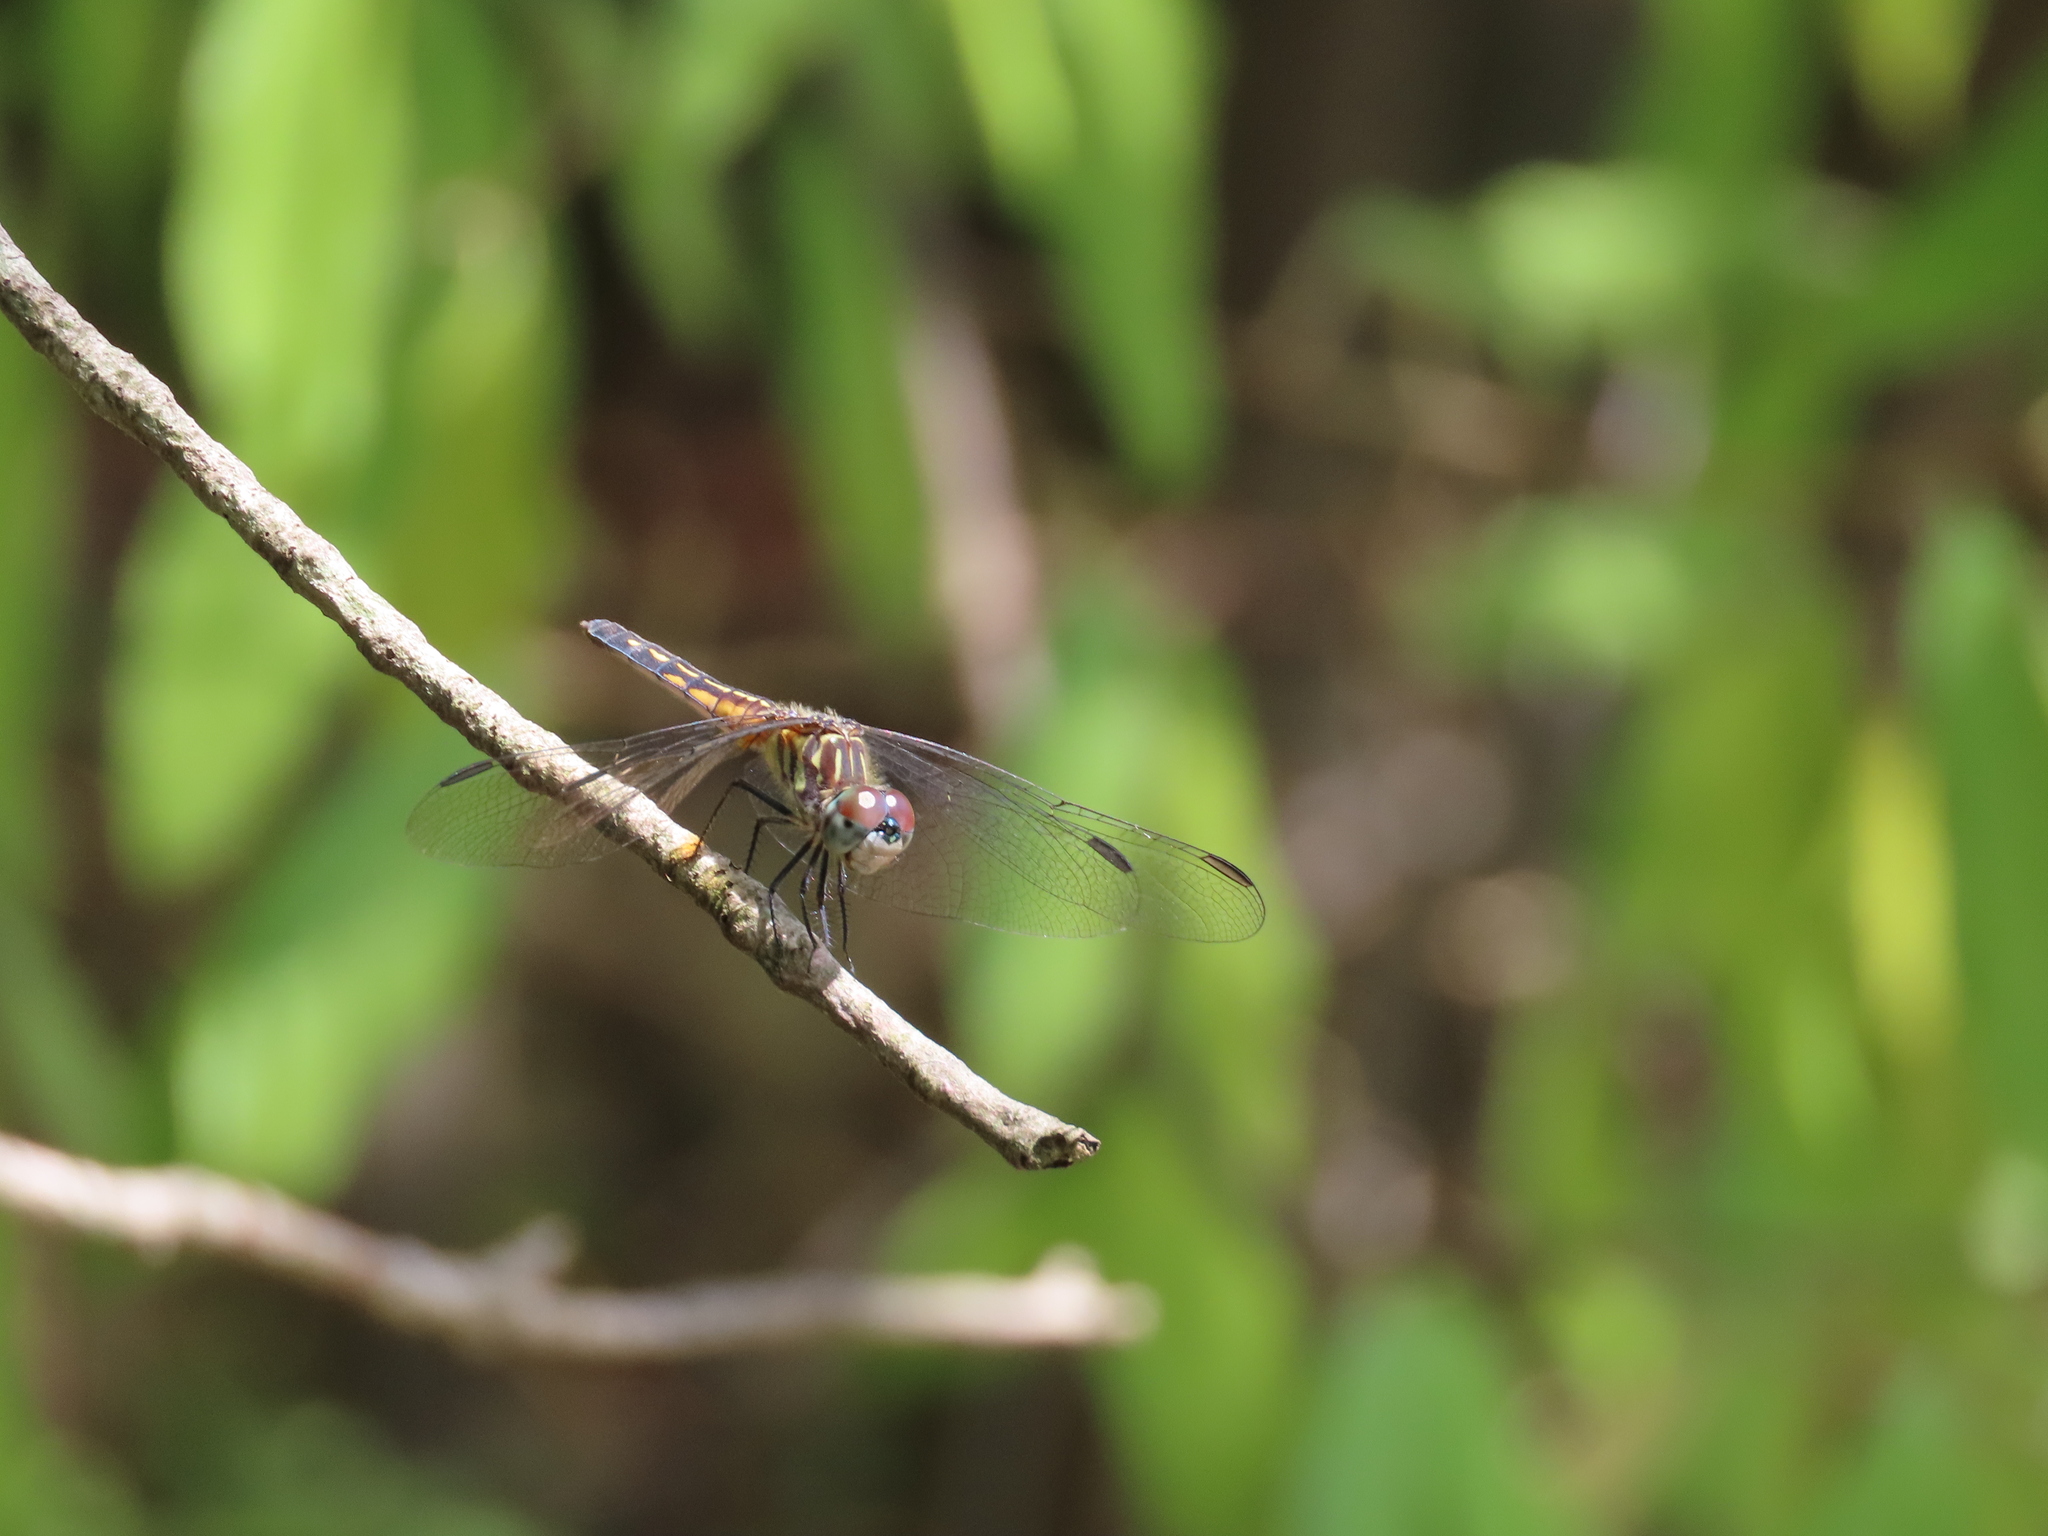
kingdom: Animalia
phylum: Arthropoda
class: Insecta
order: Odonata
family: Libellulidae
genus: Pachydiplax
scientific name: Pachydiplax longipennis
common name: Blue dasher
